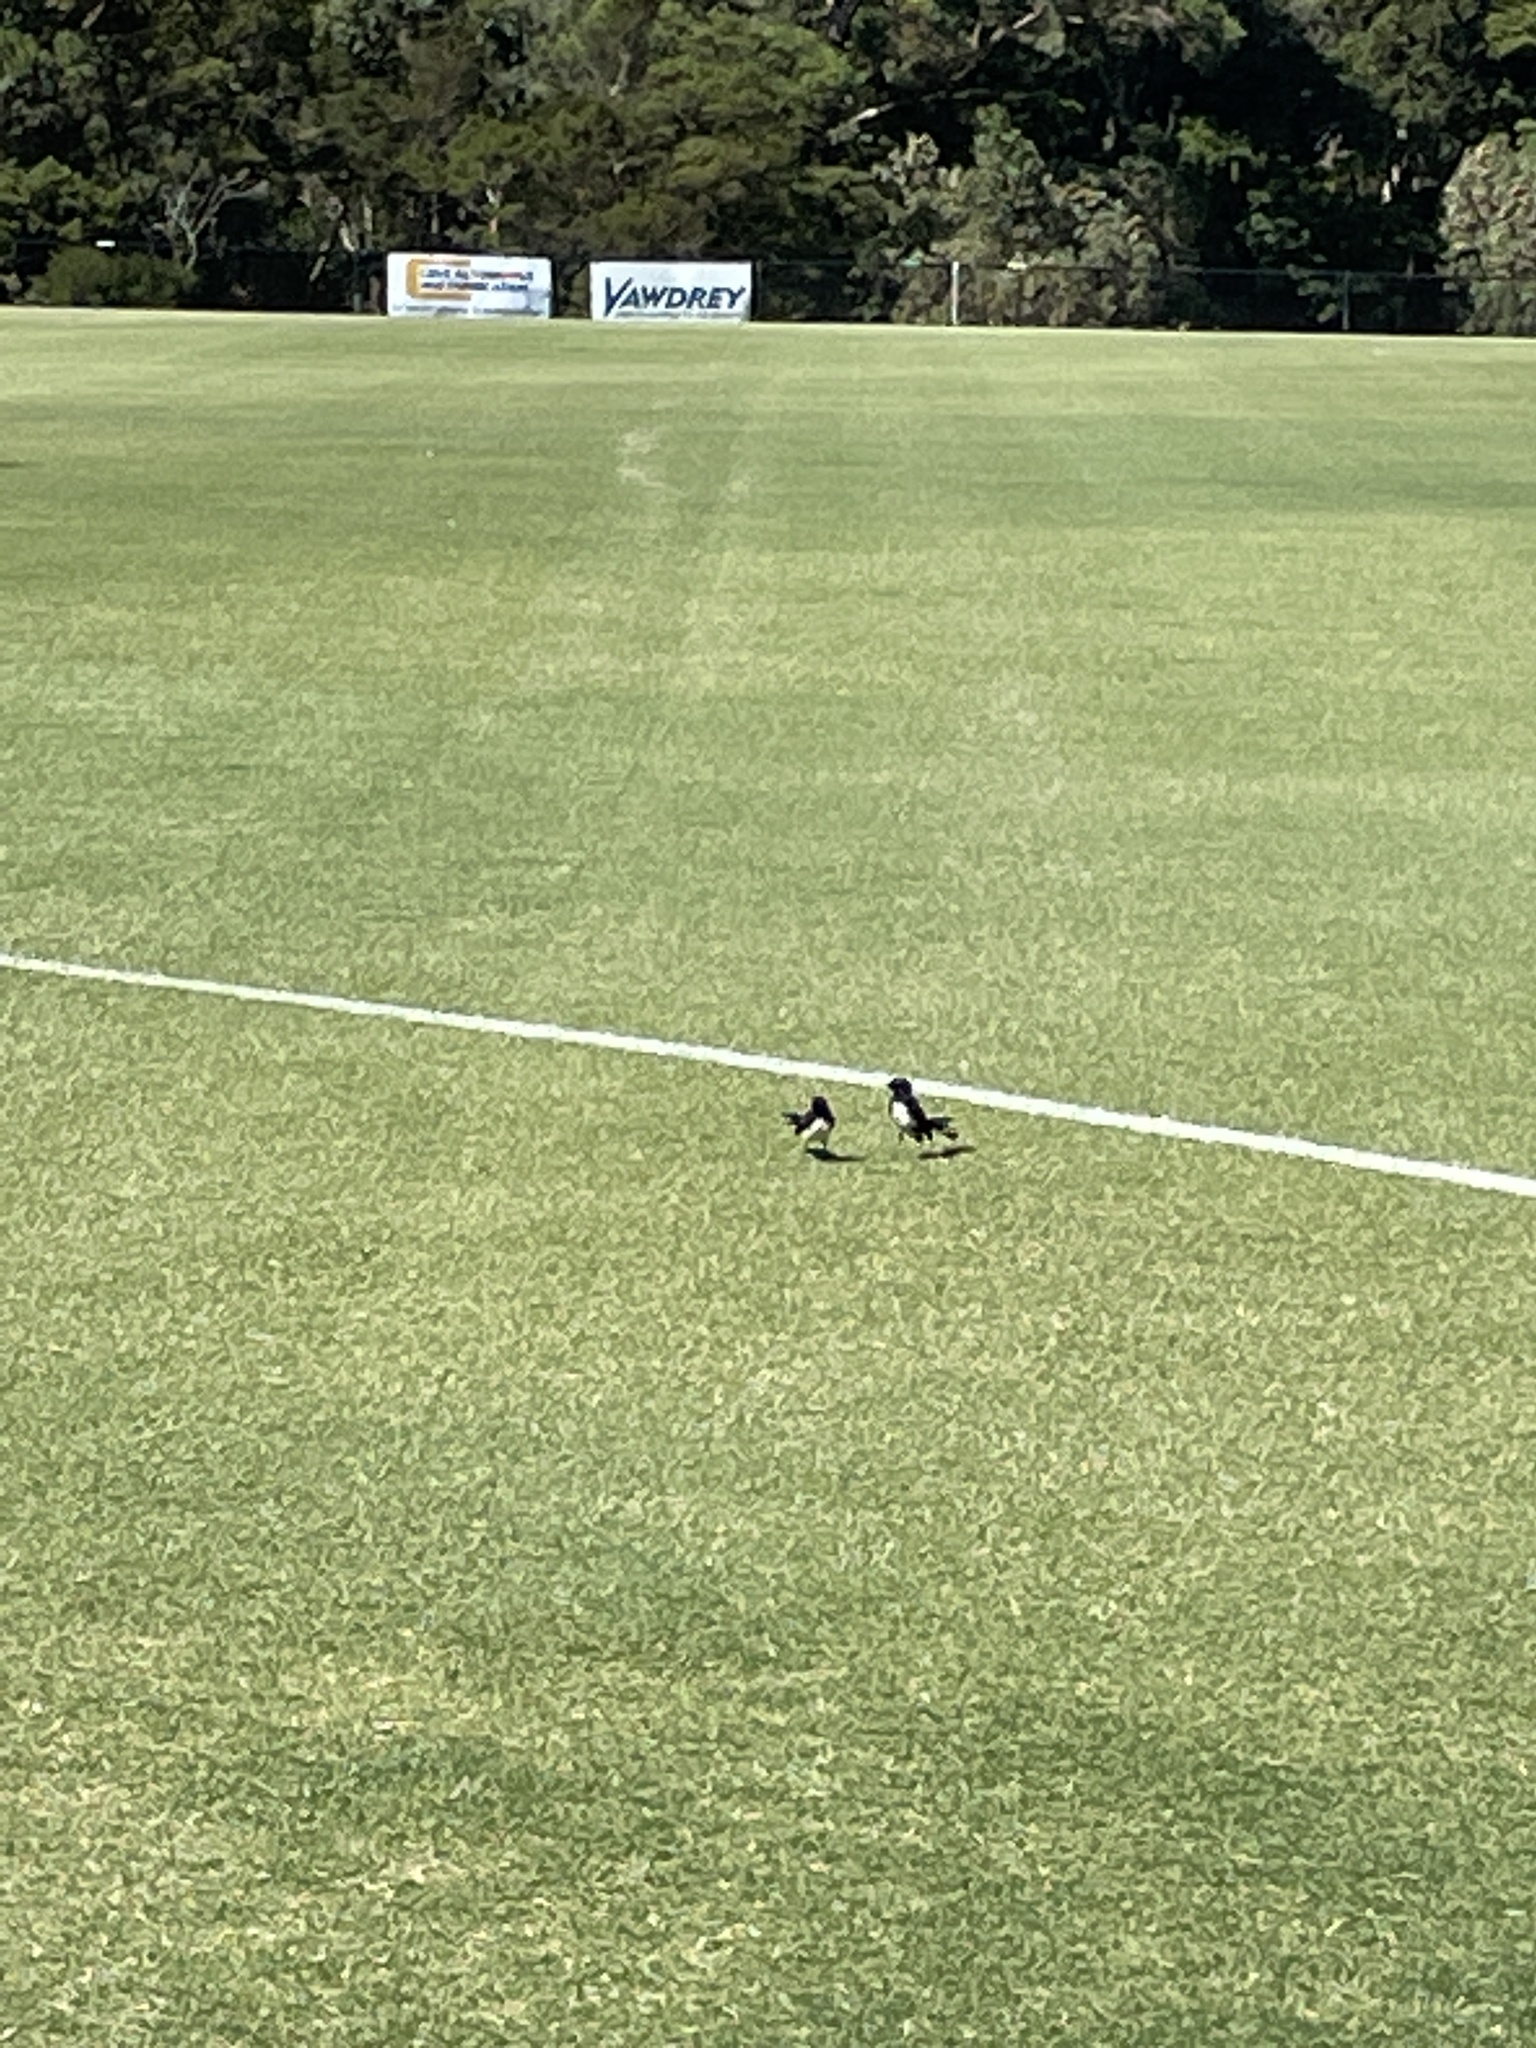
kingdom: Animalia
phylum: Chordata
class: Aves
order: Passeriformes
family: Rhipiduridae
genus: Rhipidura
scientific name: Rhipidura leucophrys
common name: Willie wagtail
